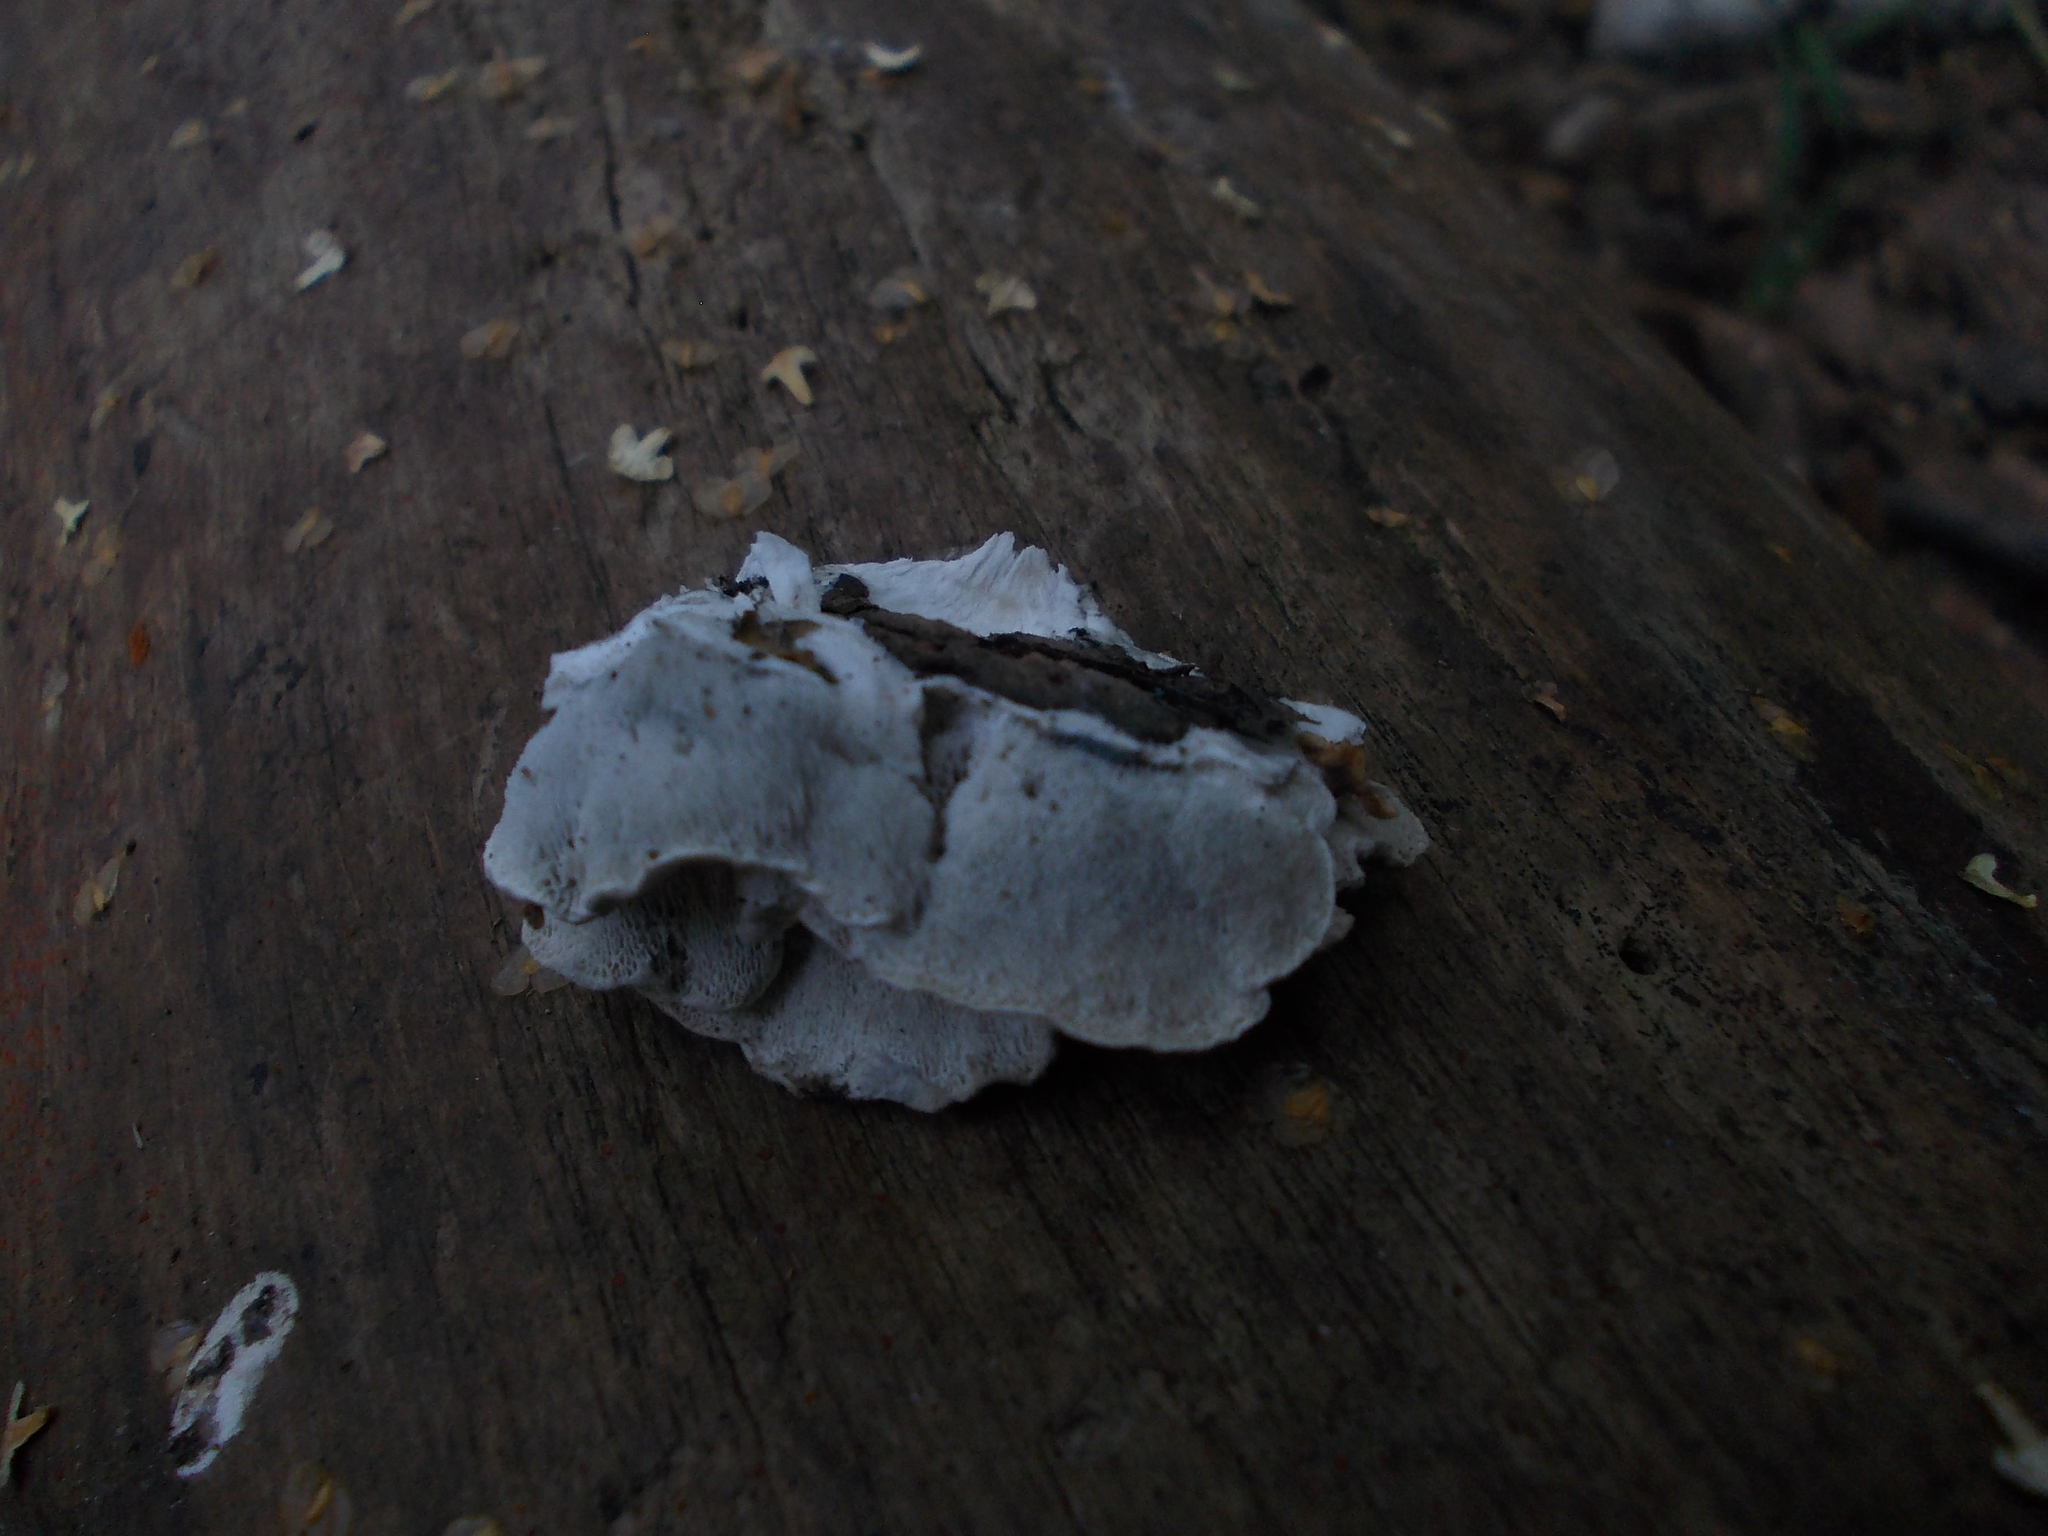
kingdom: Fungi
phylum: Basidiomycota
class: Agaricomycetes
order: Polyporales
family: Polyporaceae
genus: Cyanosporus
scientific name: Cyanosporus caesius
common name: Blue cheese polypore
